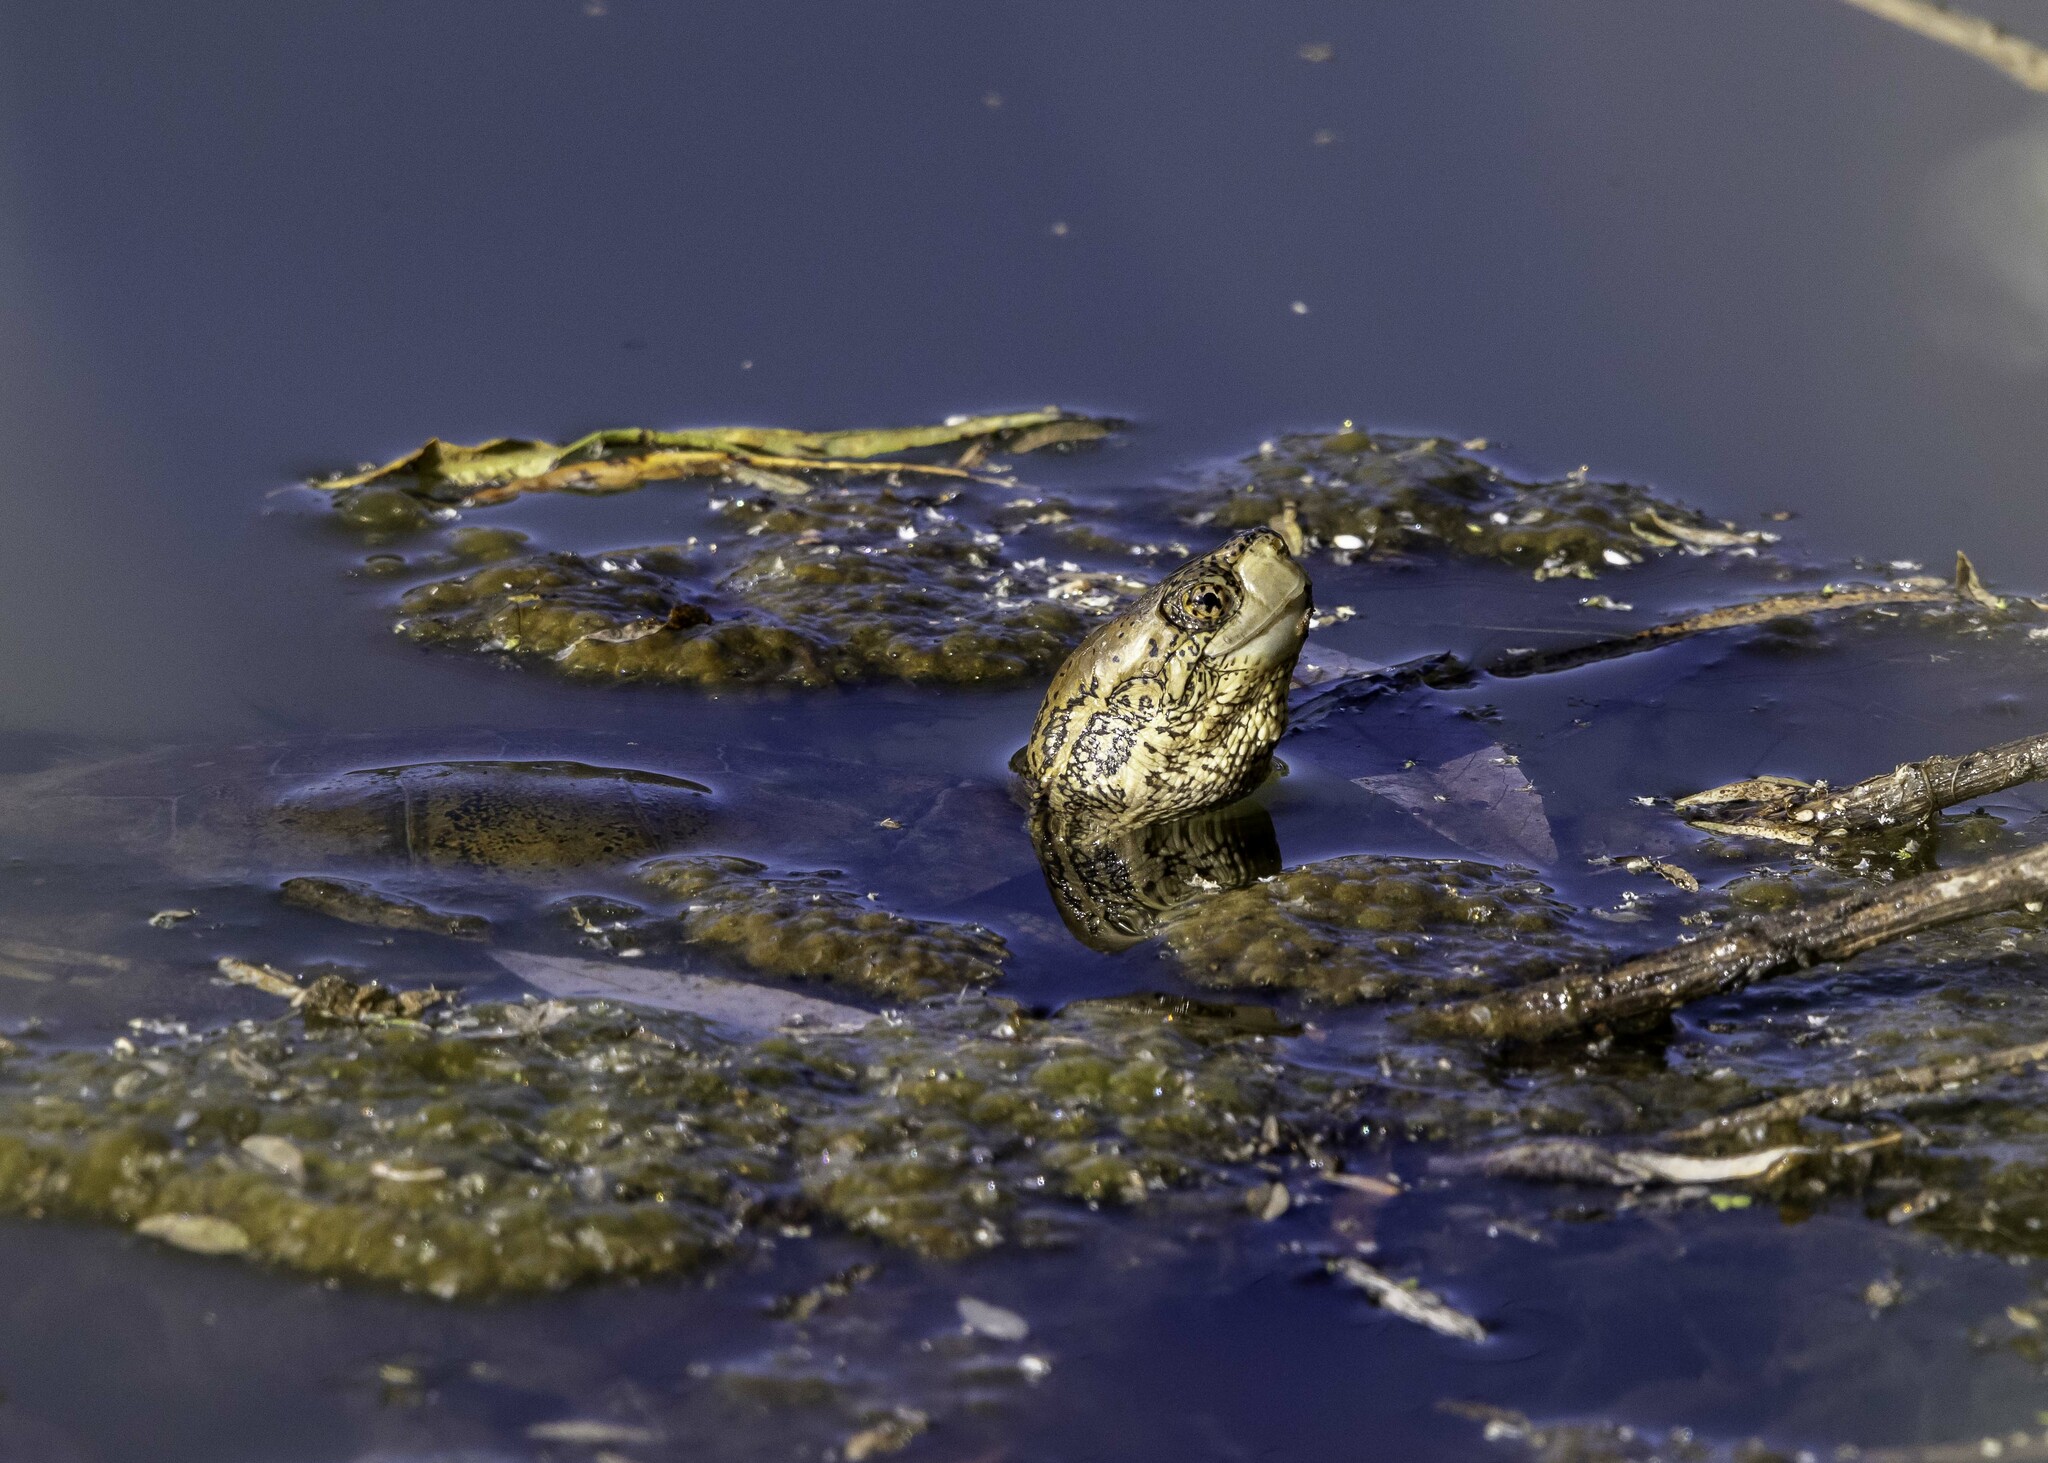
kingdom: Animalia
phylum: Chordata
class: Testudines
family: Emydidae
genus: Actinemys
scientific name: Actinemys pallida
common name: Southern pacific pond turtle
